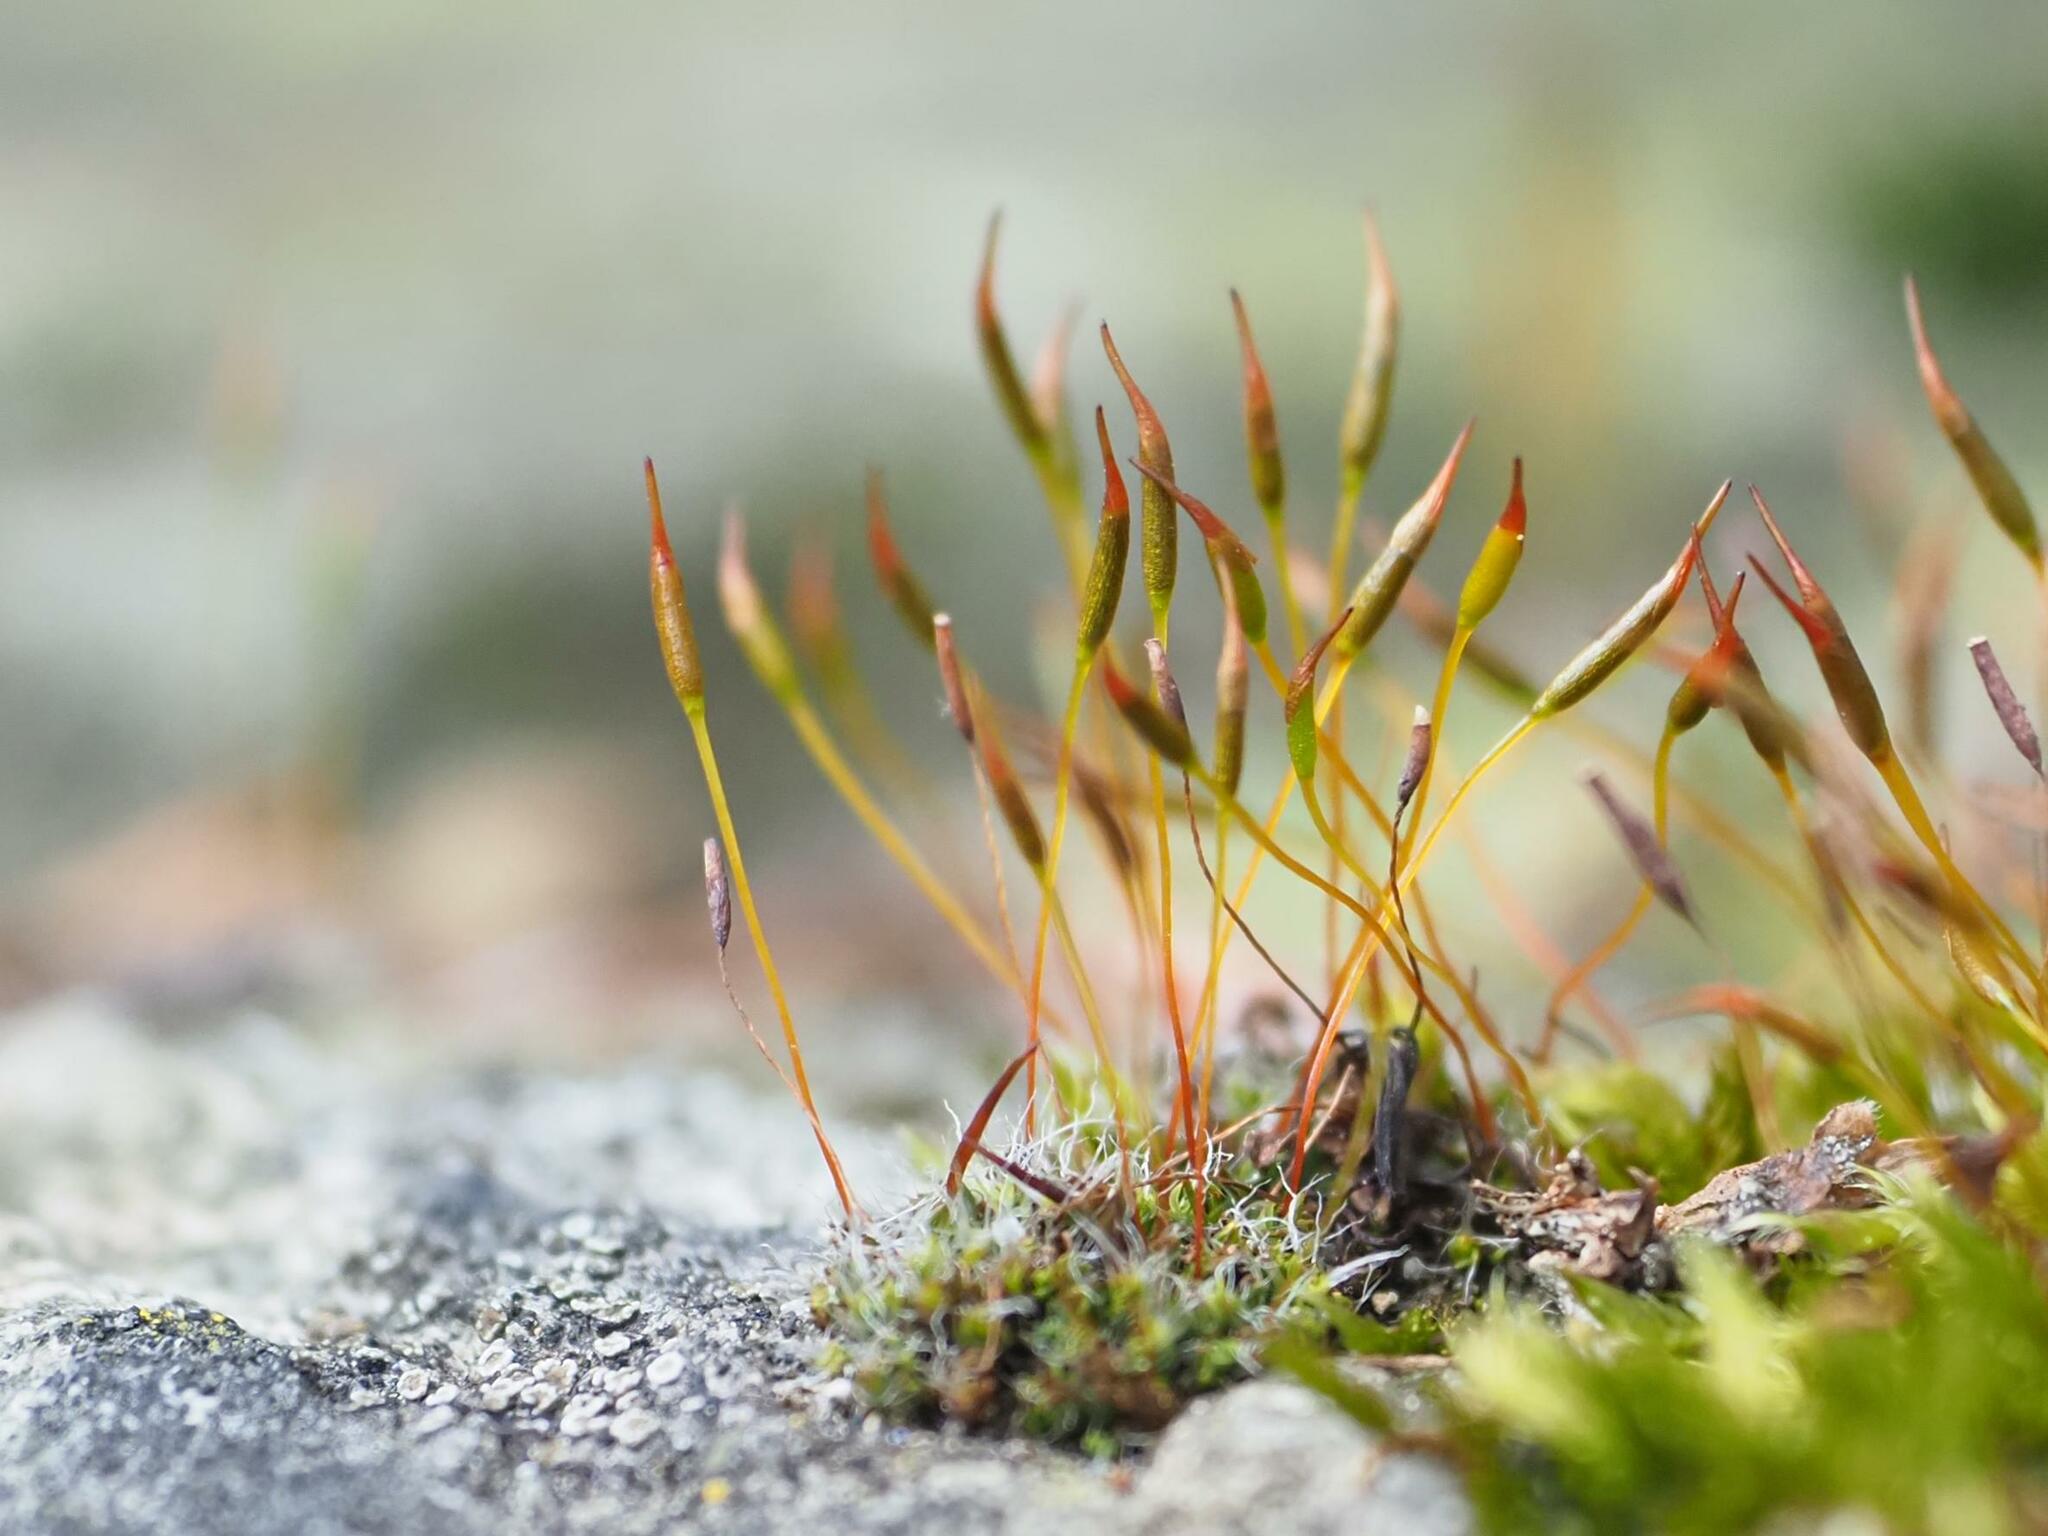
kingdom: Plantae
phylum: Bryophyta
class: Bryopsida
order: Pottiales
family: Pottiaceae
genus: Tortula
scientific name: Tortula muralis
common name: Wall screw-moss
